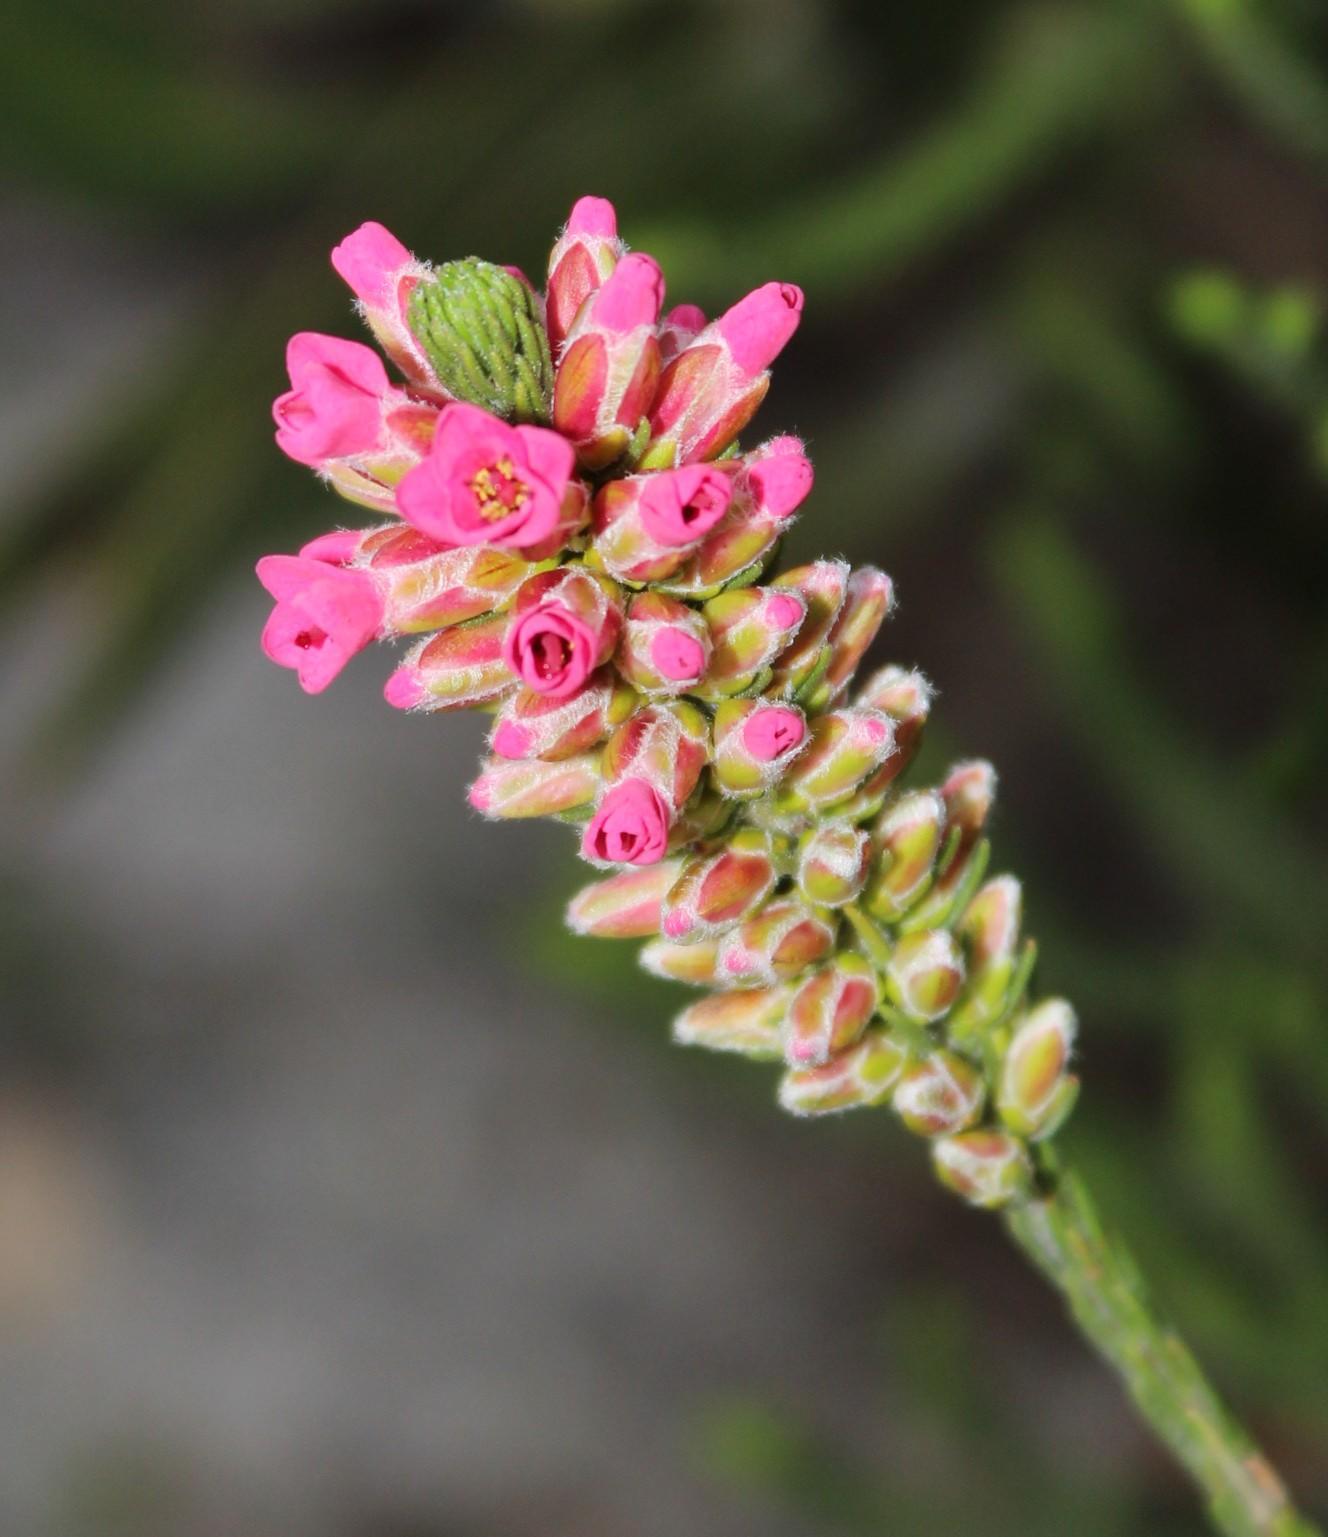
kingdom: Plantae
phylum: Tracheophyta
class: Magnoliopsida
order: Bruniales
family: Bruniaceae
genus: Audouinia
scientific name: Audouinia capitata
